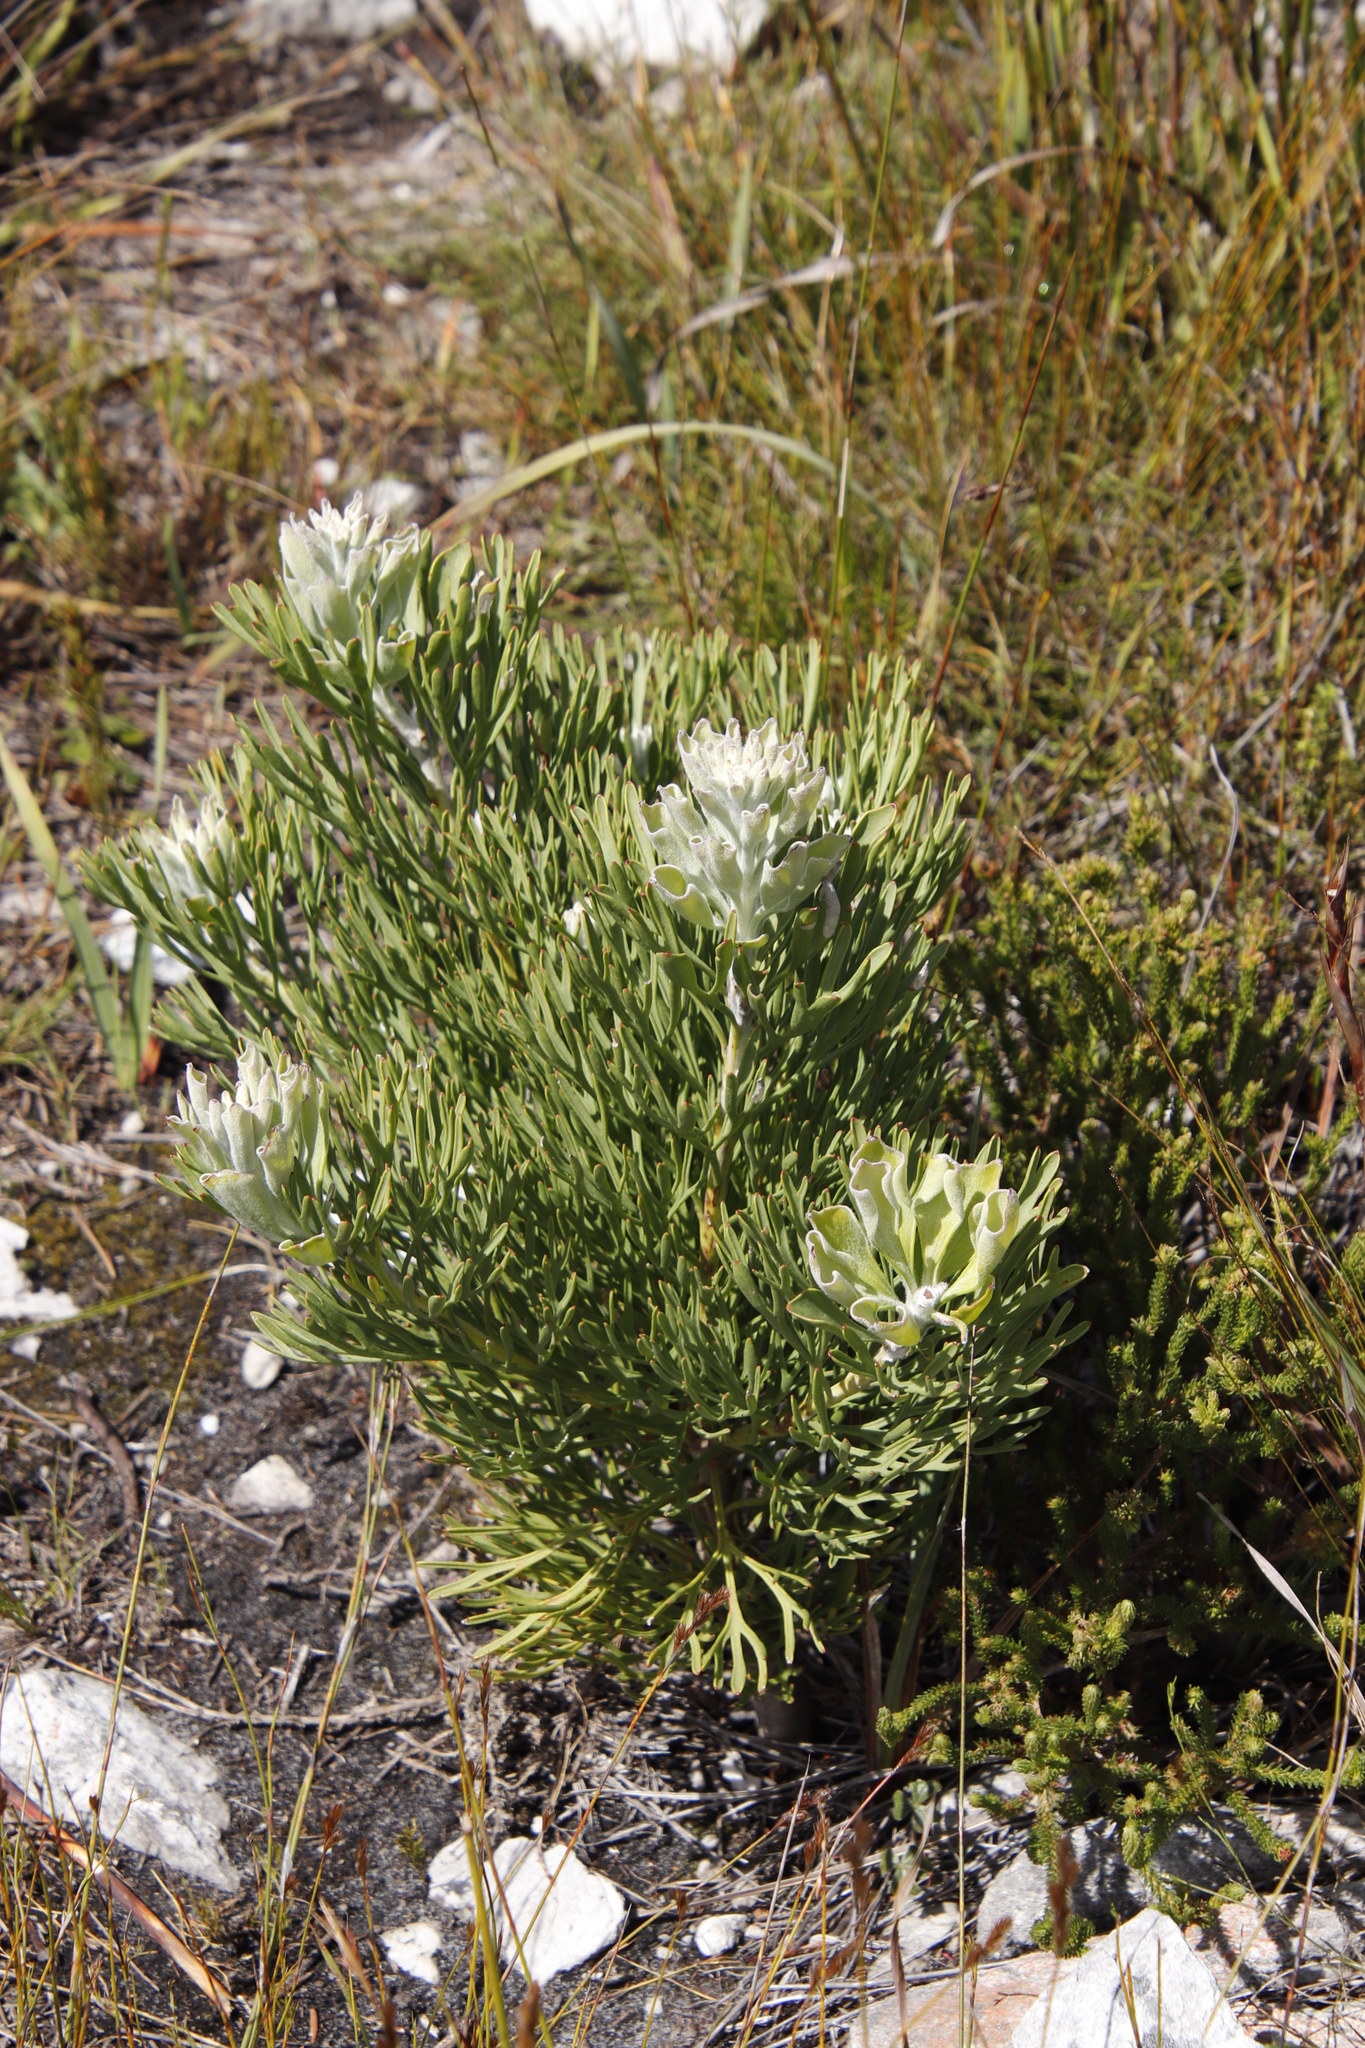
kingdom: Plantae
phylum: Tracheophyta
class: Magnoliopsida
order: Proteales
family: Proteaceae
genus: Paranomus
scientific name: Paranomus sceptrum-gustavianus
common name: King gustav's sceptre
